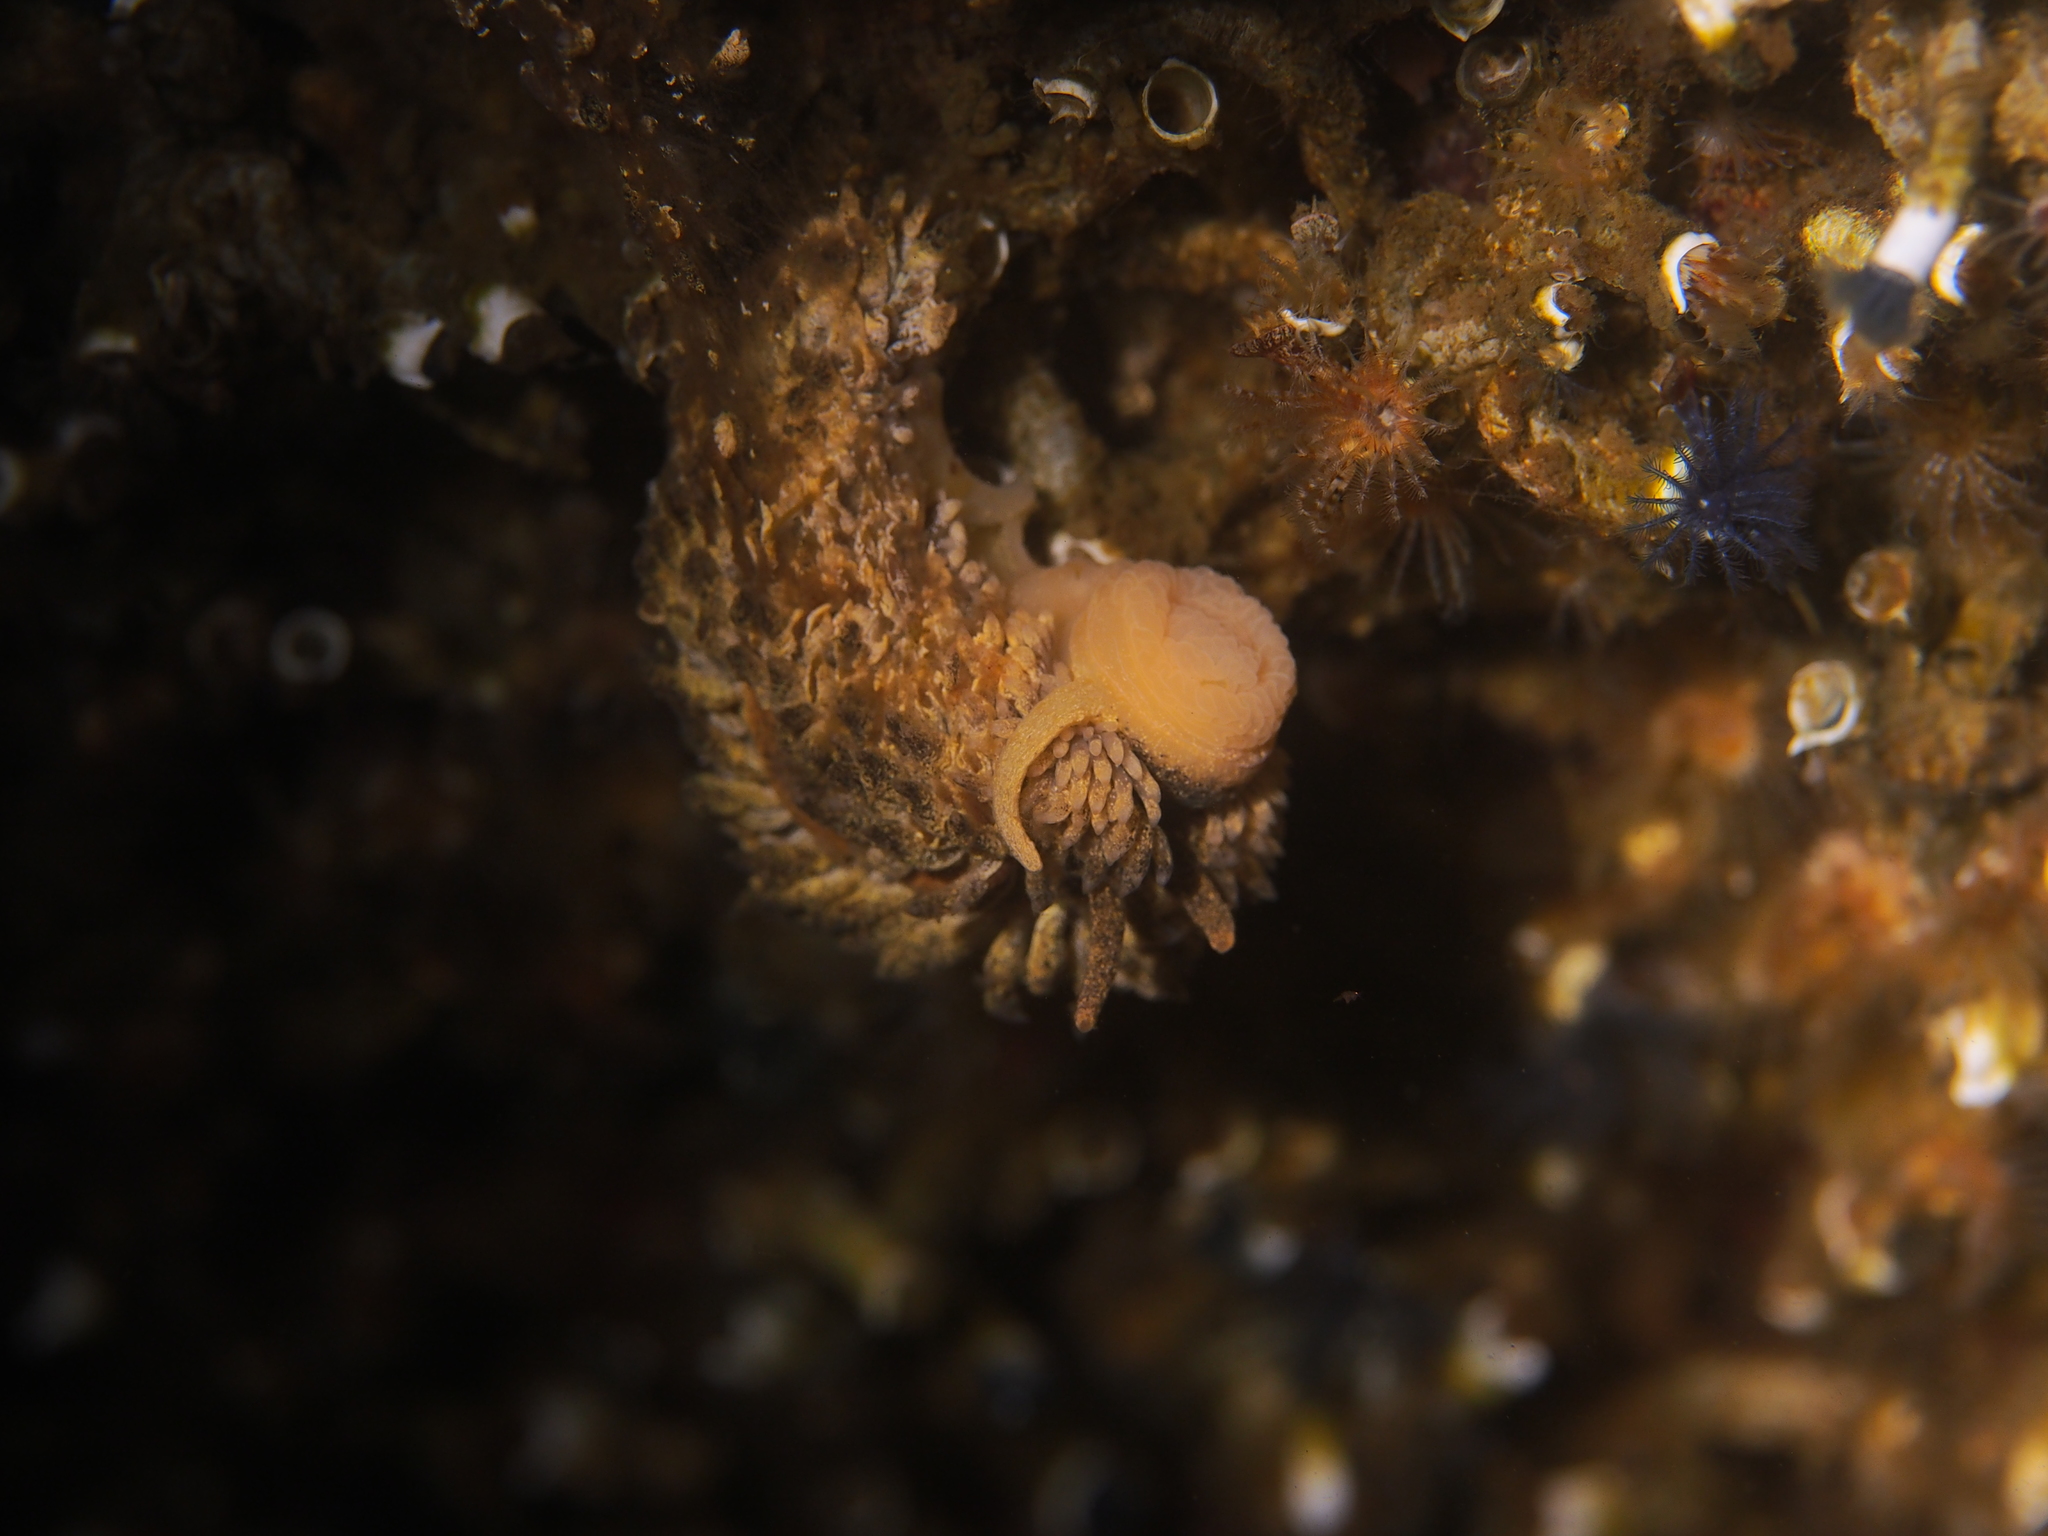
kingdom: Animalia
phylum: Mollusca
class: Gastropoda
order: Nudibranchia
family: Aeolidiidae
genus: Aeolidia
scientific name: Aeolidia papillosa
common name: Common grey sea slug
